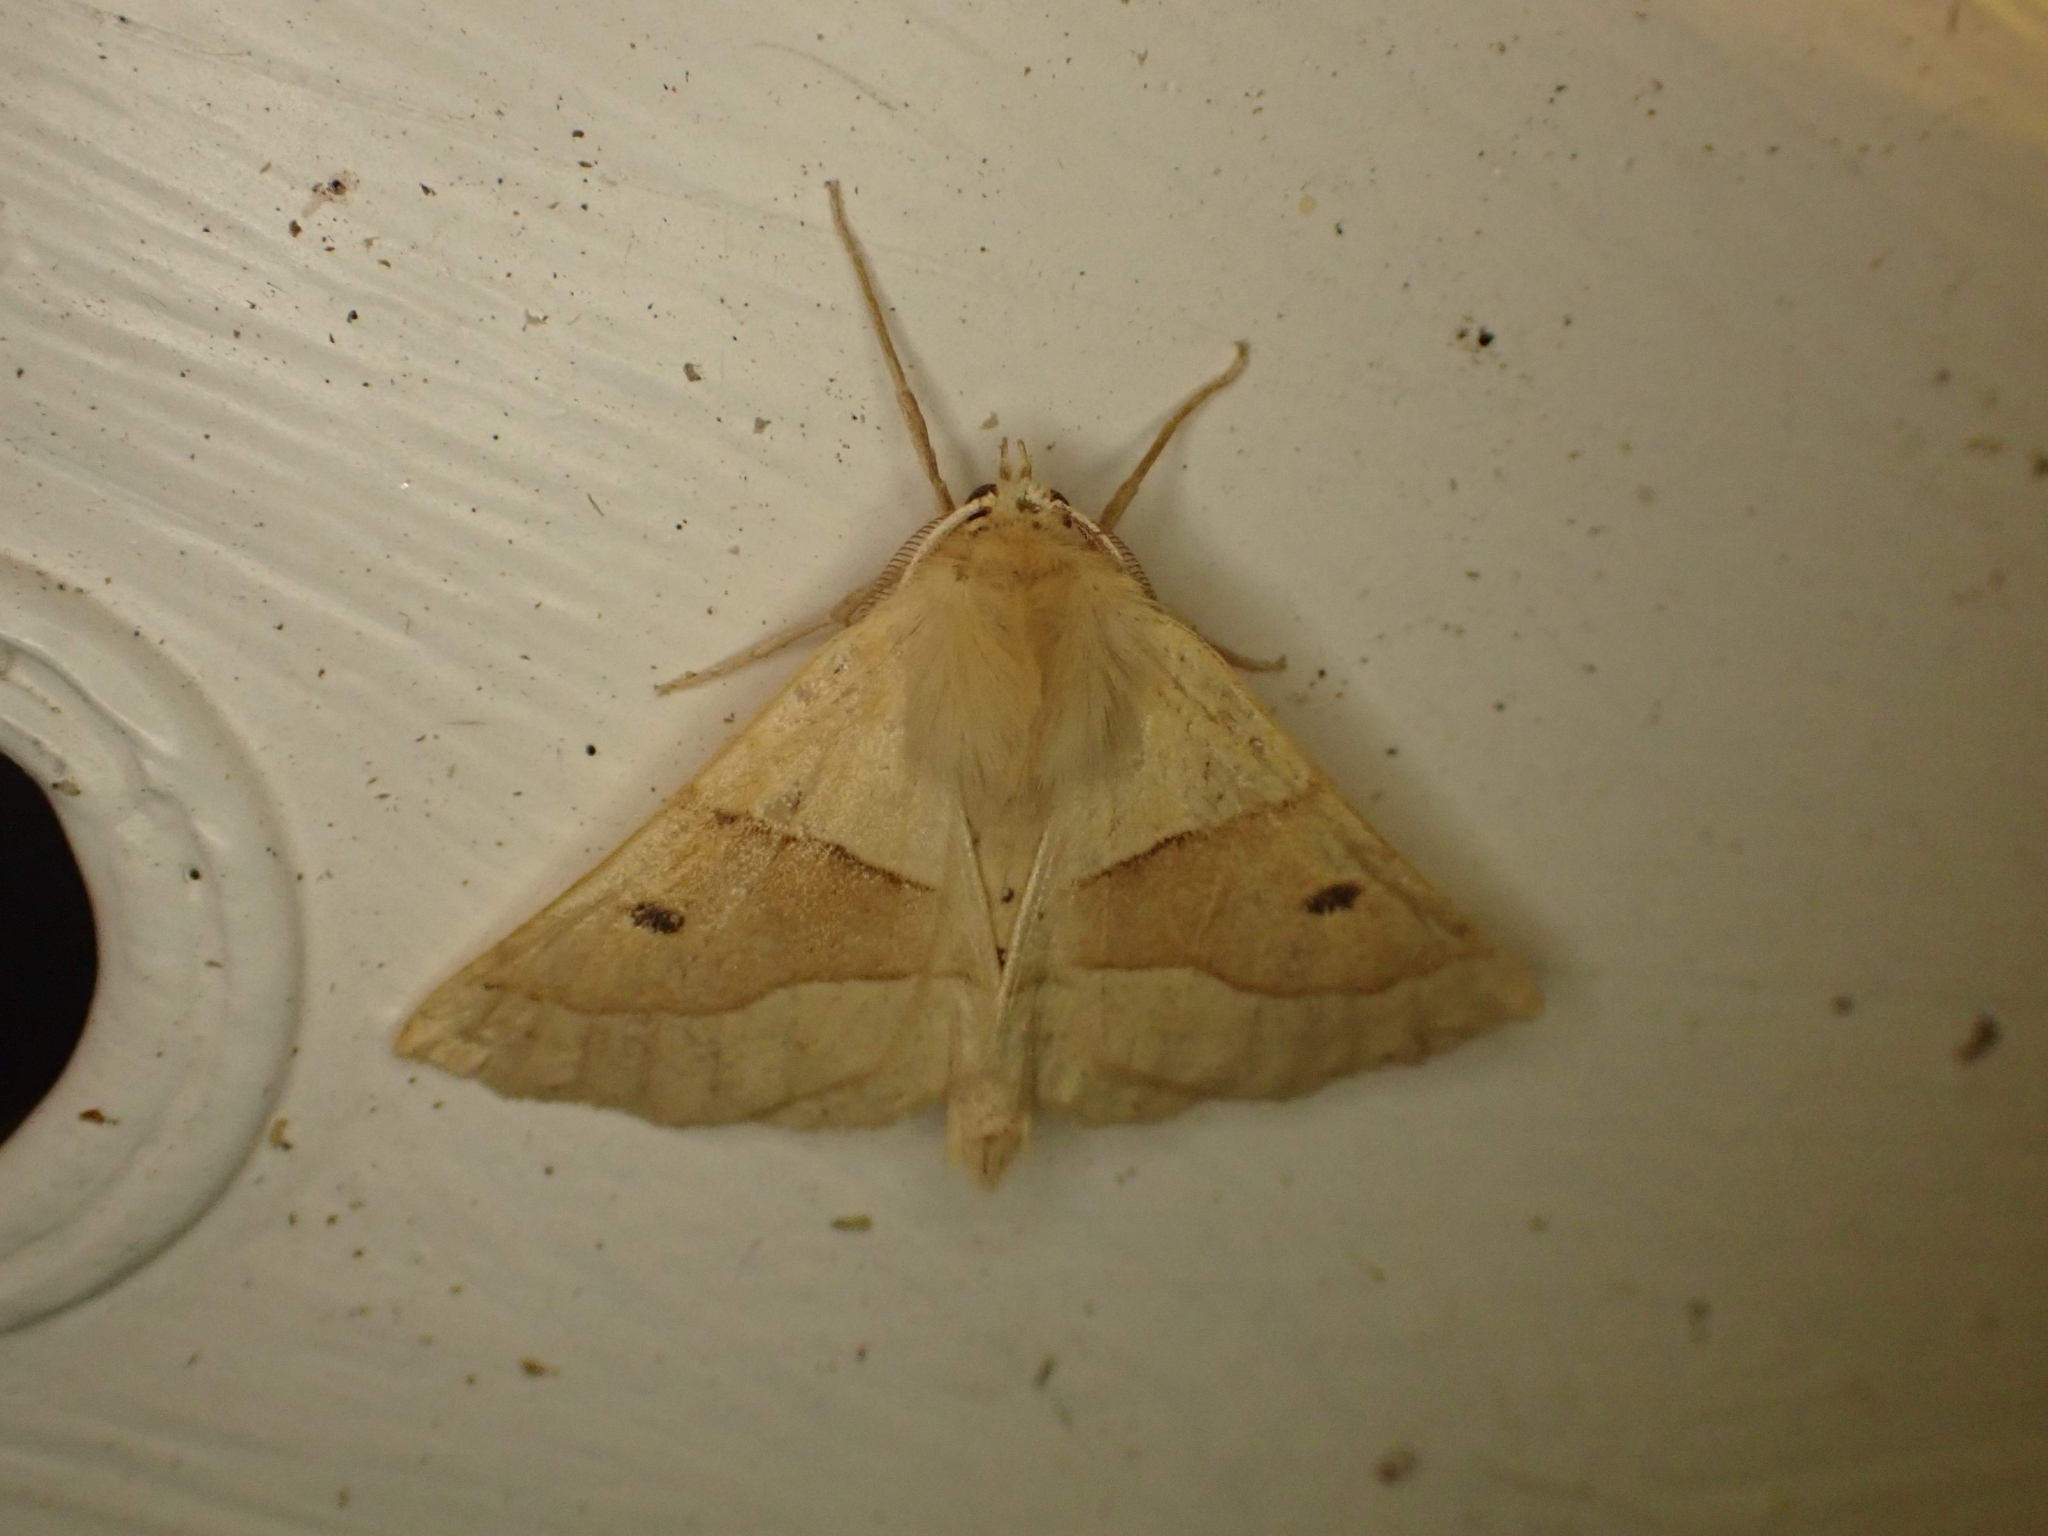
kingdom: Animalia
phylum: Arthropoda
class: Insecta
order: Lepidoptera
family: Geometridae
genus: Crocallis
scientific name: Crocallis elinguaria
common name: Scalloped oak
